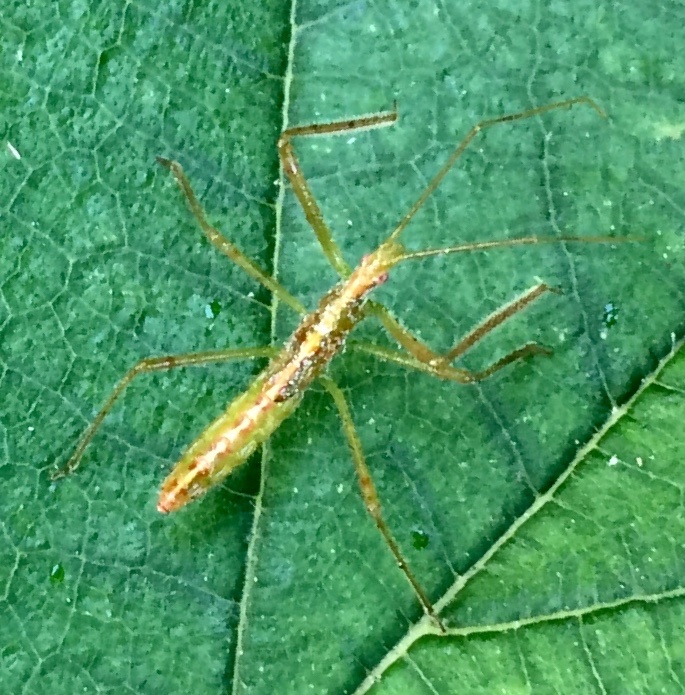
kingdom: Animalia
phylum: Arthropoda
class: Insecta
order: Hemiptera
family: Reduviidae
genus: Zelus
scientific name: Zelus luridus
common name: Pale green assassin bug
